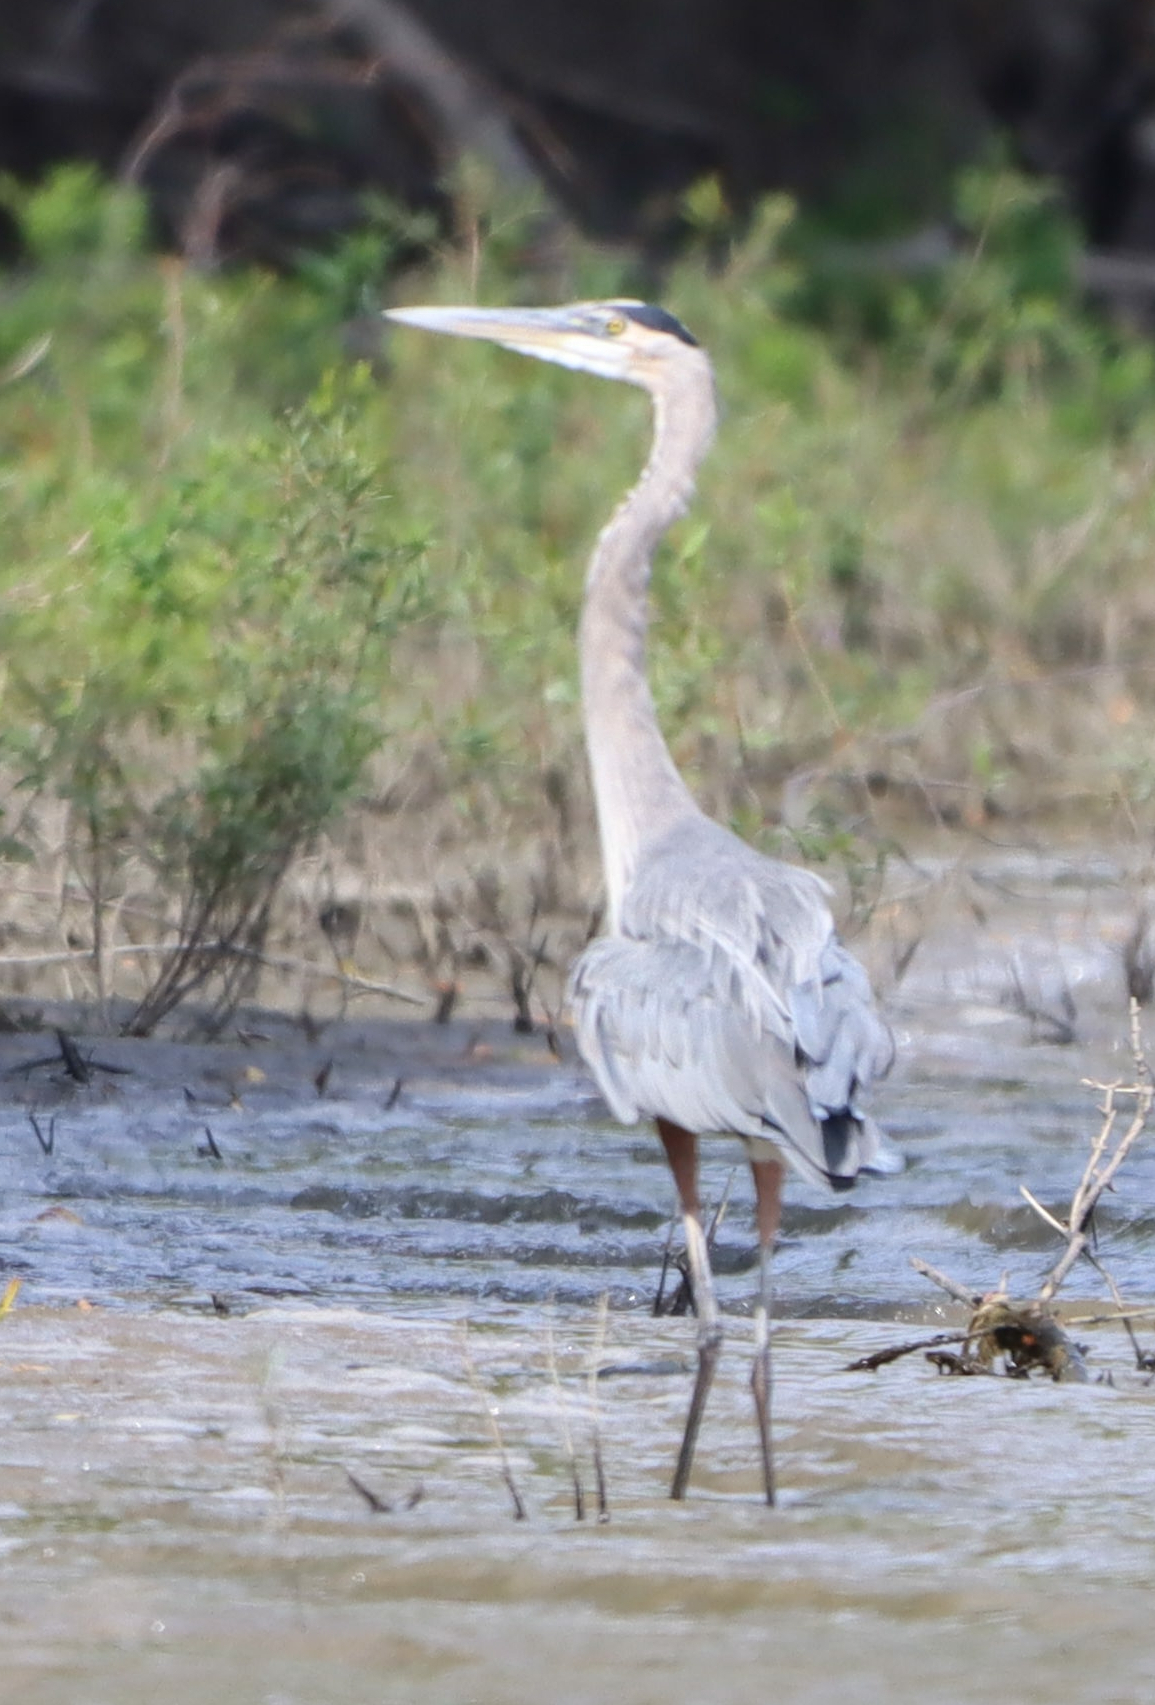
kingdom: Animalia
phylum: Chordata
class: Aves
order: Pelecaniformes
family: Ardeidae
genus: Ardea
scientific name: Ardea herodias
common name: Great blue heron
